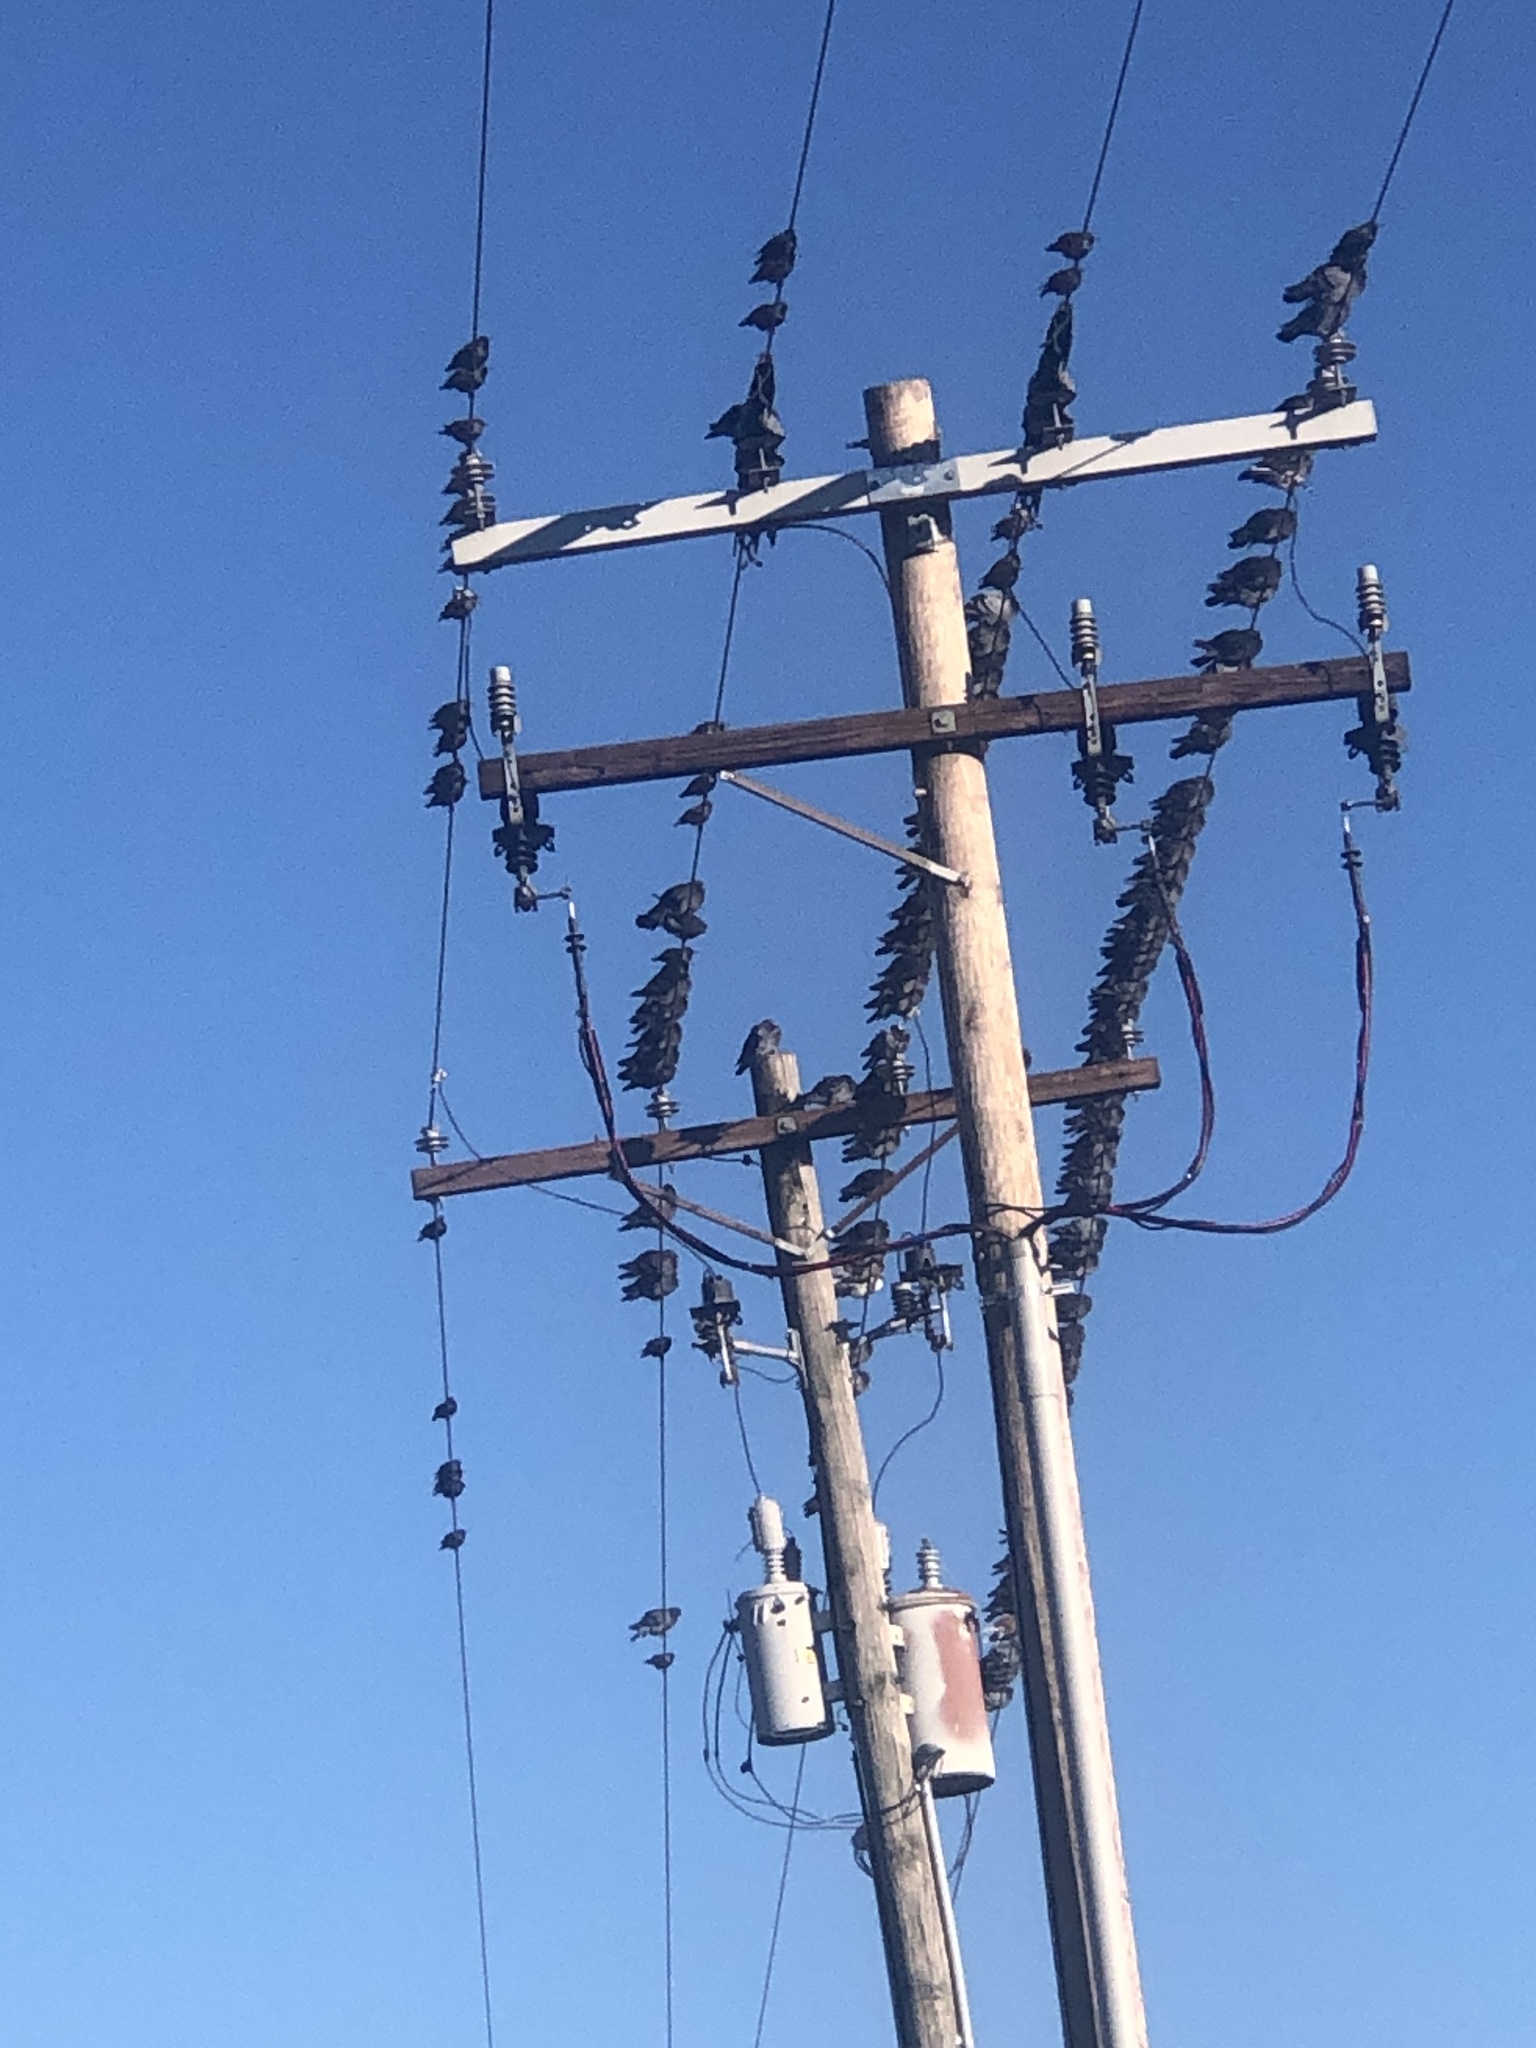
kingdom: Animalia
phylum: Chordata
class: Aves
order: Columbiformes
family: Columbidae
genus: Columba
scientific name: Columba livia
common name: Rock pigeon
